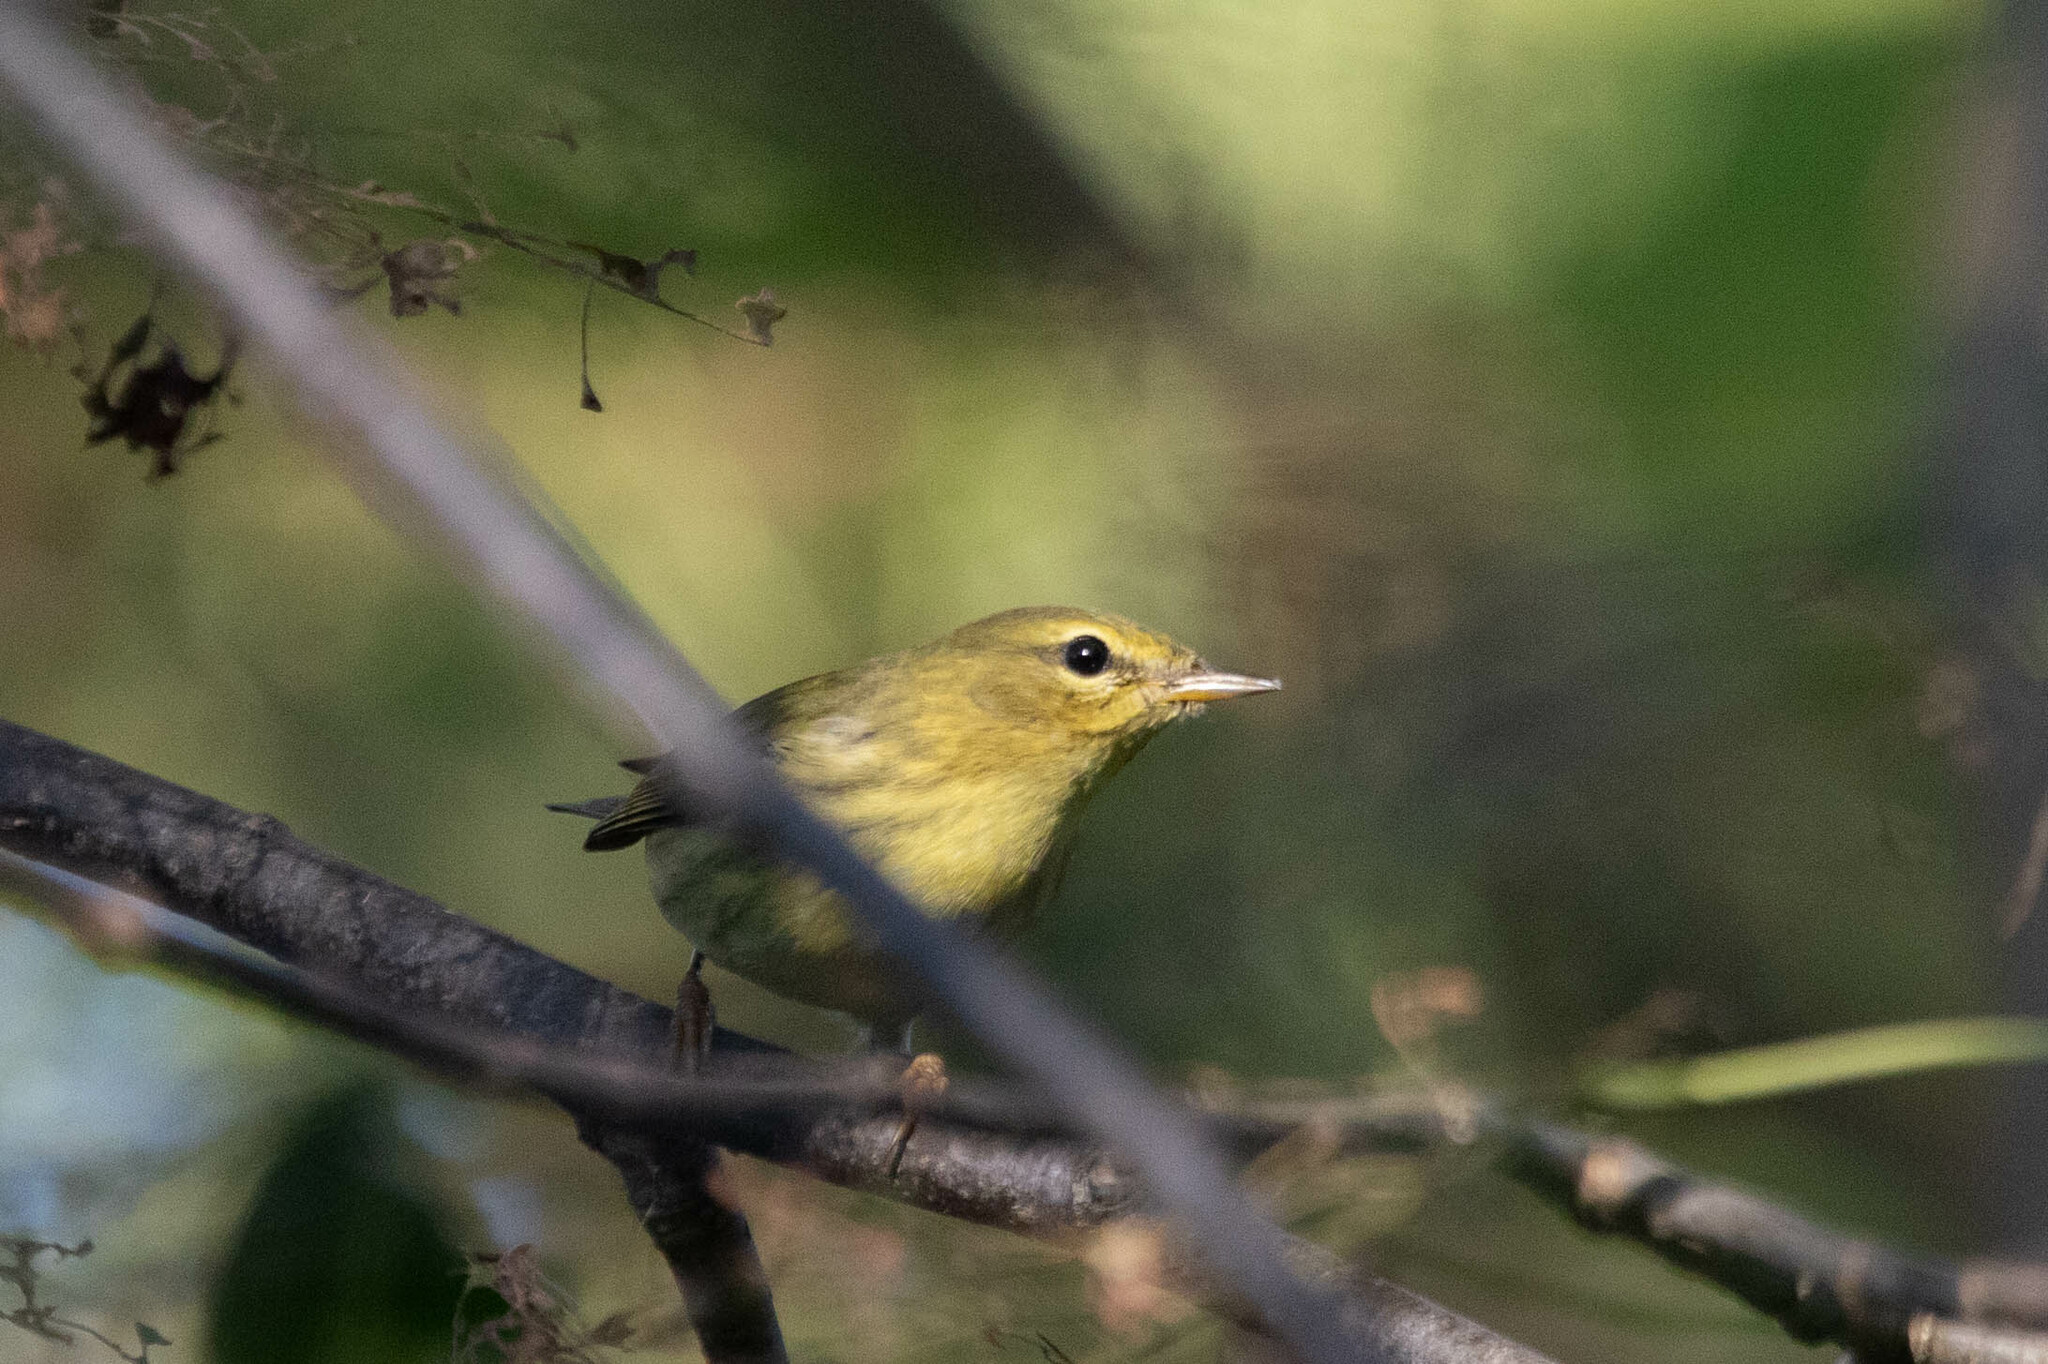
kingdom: Animalia
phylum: Chordata
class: Aves
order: Passeriformes
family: Parulidae
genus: Setophaga
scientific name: Setophaga striata
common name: Blackpoll warbler
